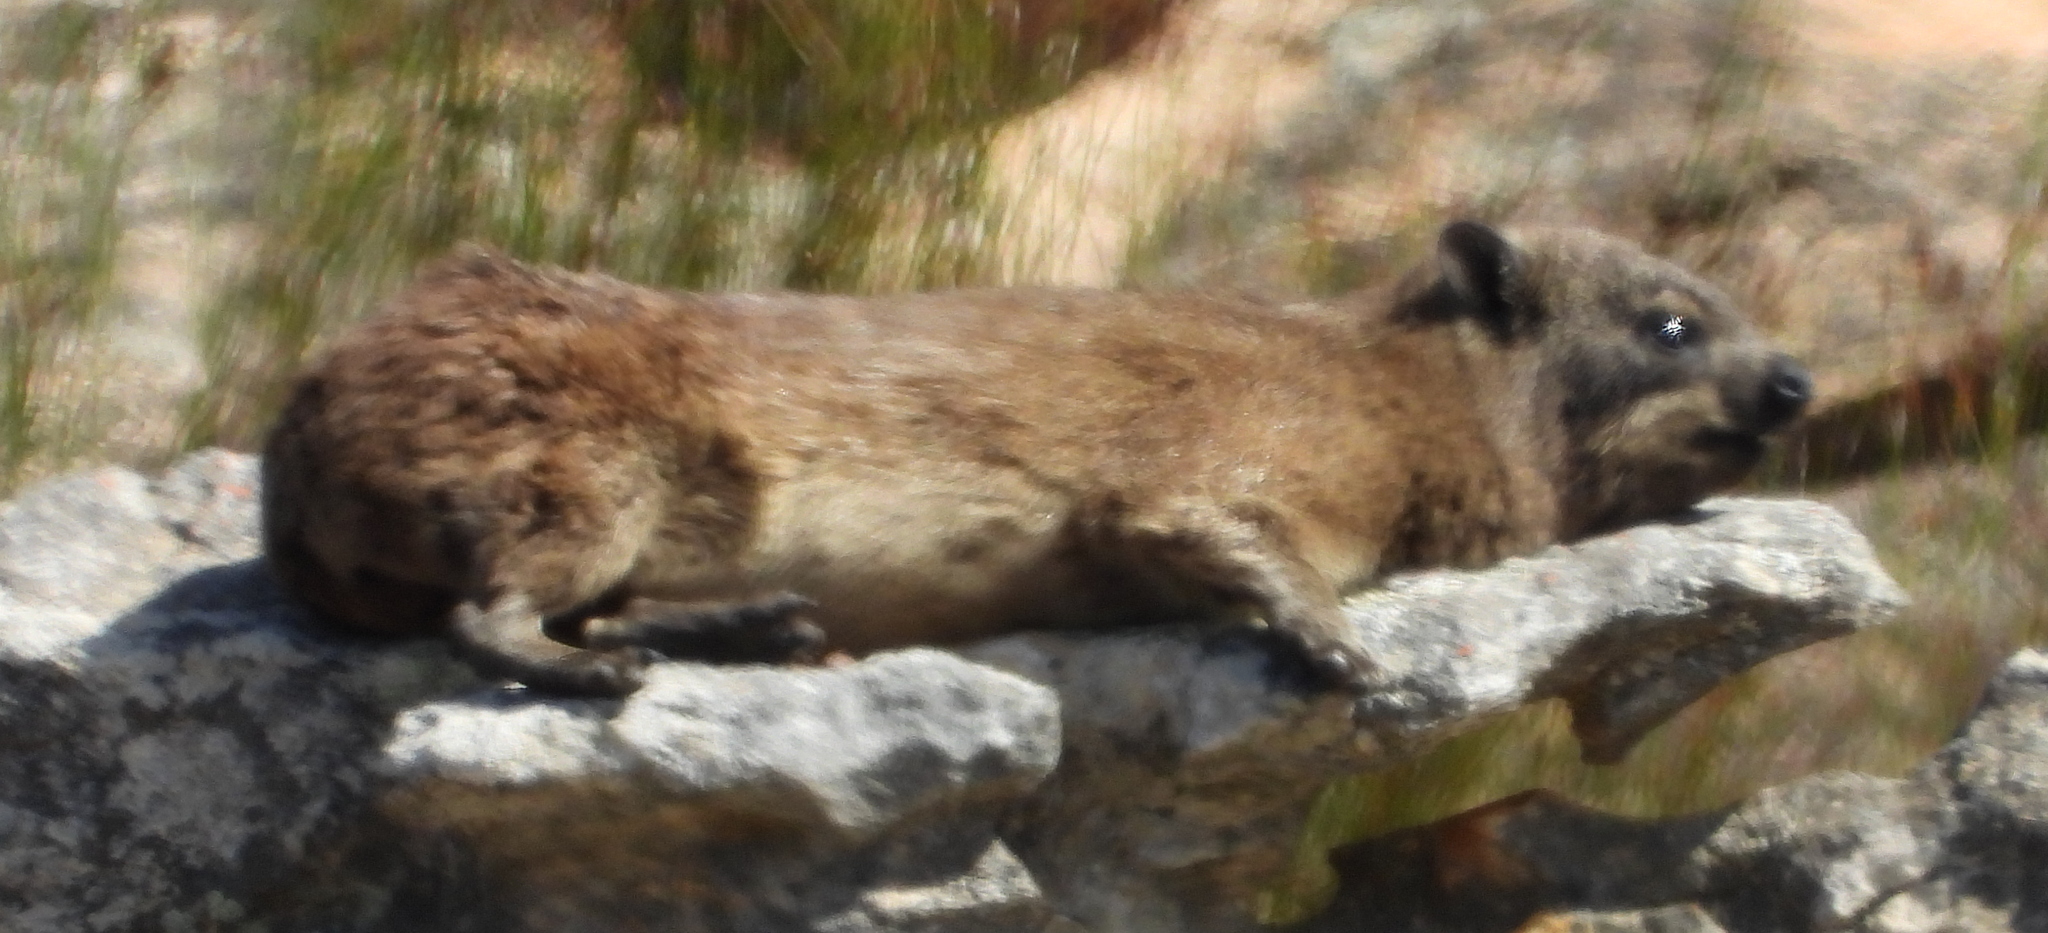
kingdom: Animalia
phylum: Chordata
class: Mammalia
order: Hyracoidea
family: Procaviidae
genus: Procavia
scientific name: Procavia capensis
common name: Rock hyrax
